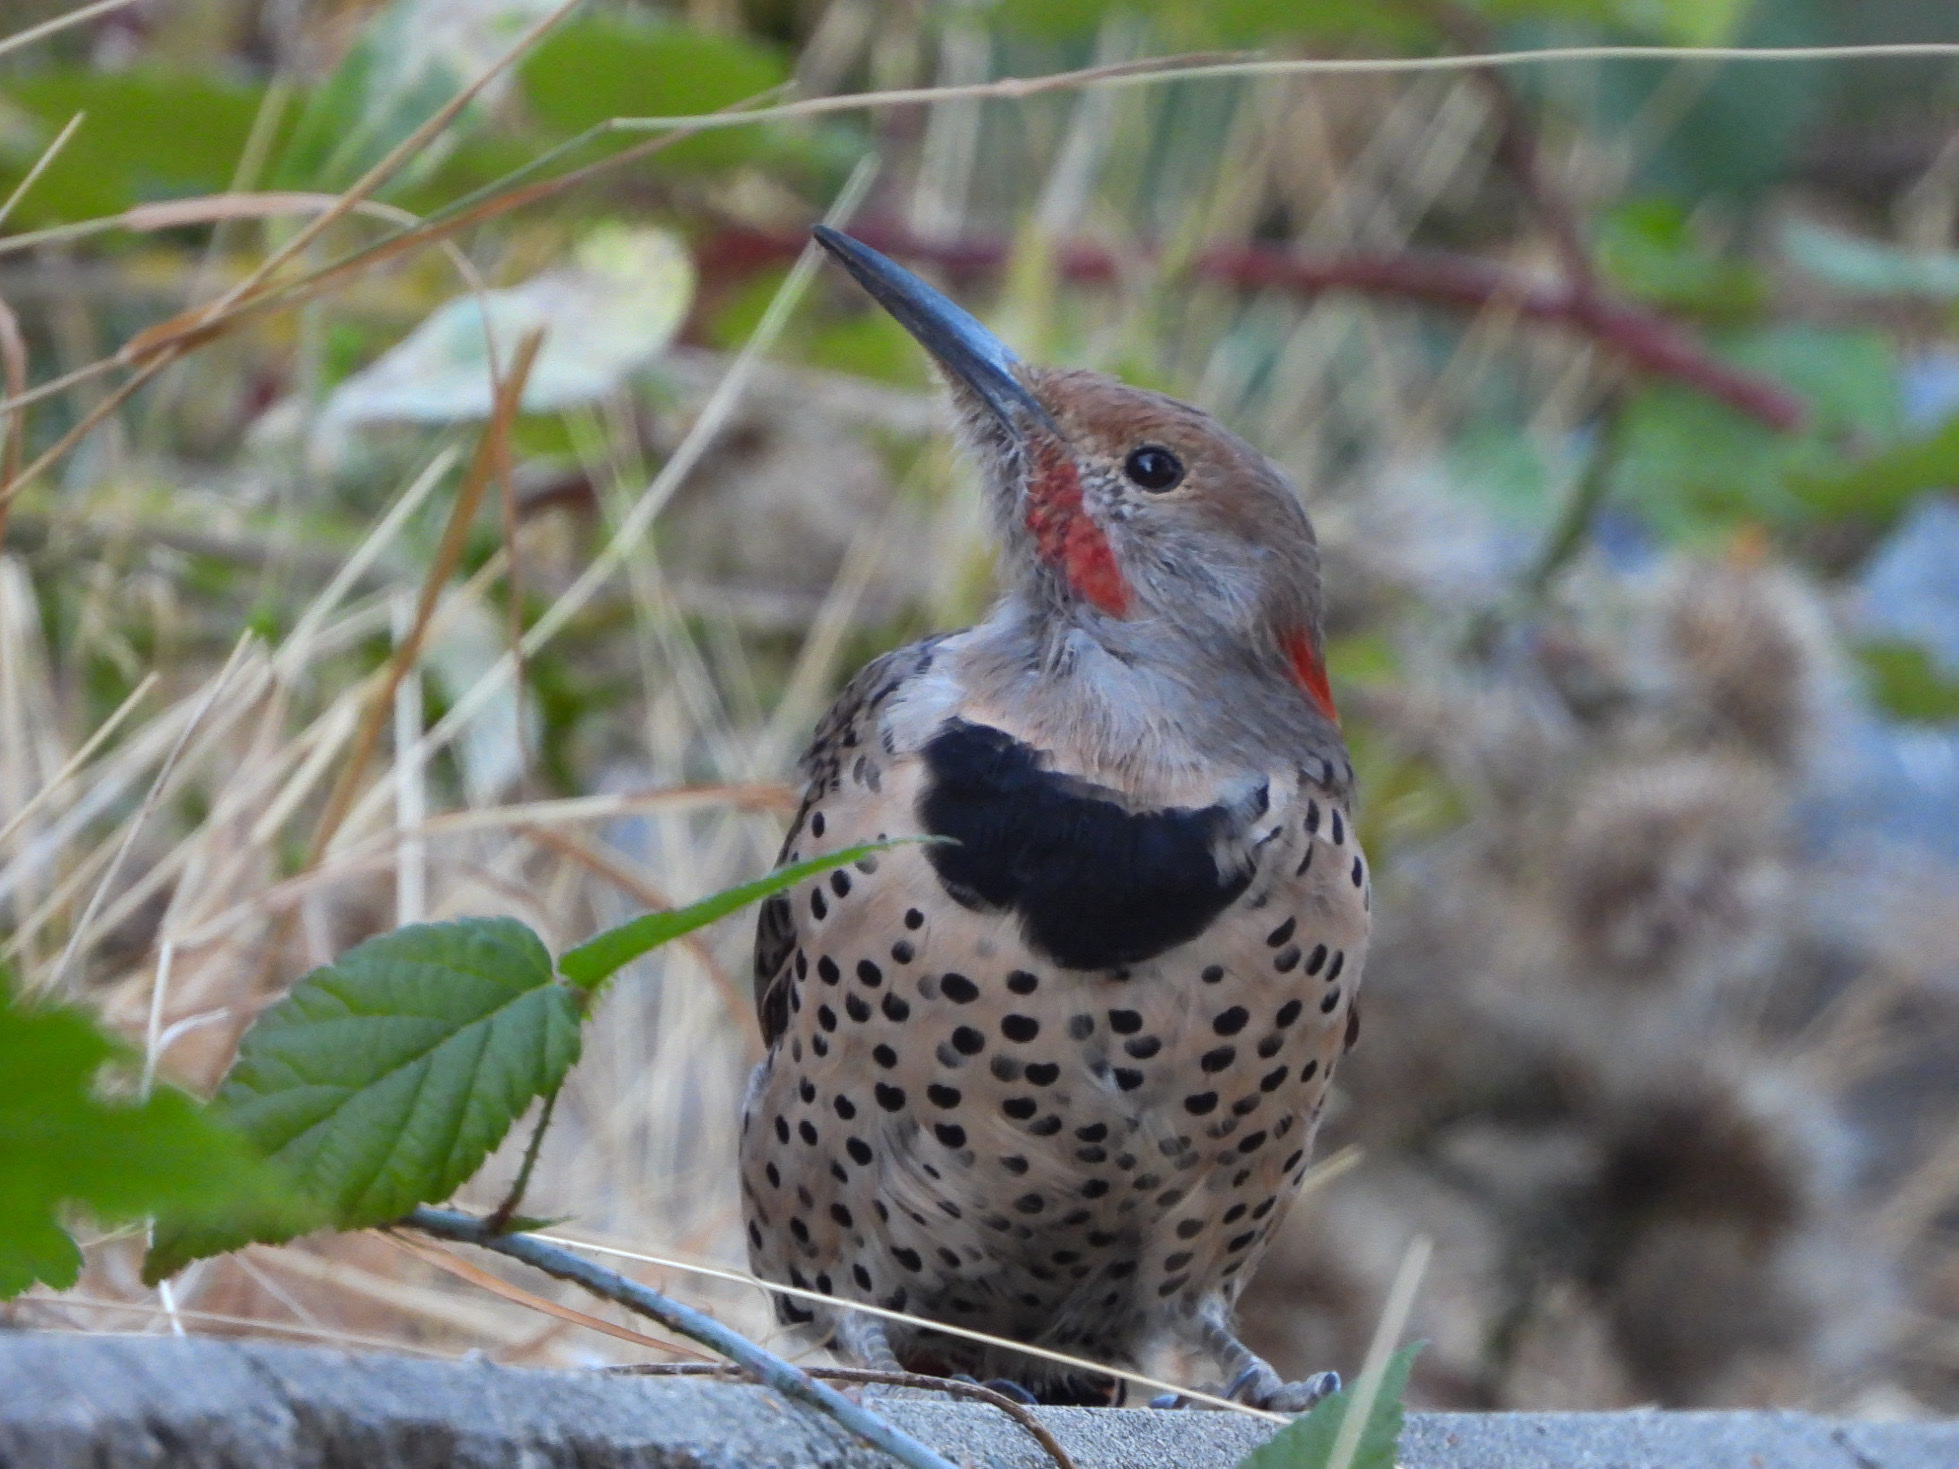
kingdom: Animalia
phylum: Chordata
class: Aves
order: Piciformes
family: Picidae
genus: Colaptes
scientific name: Colaptes
